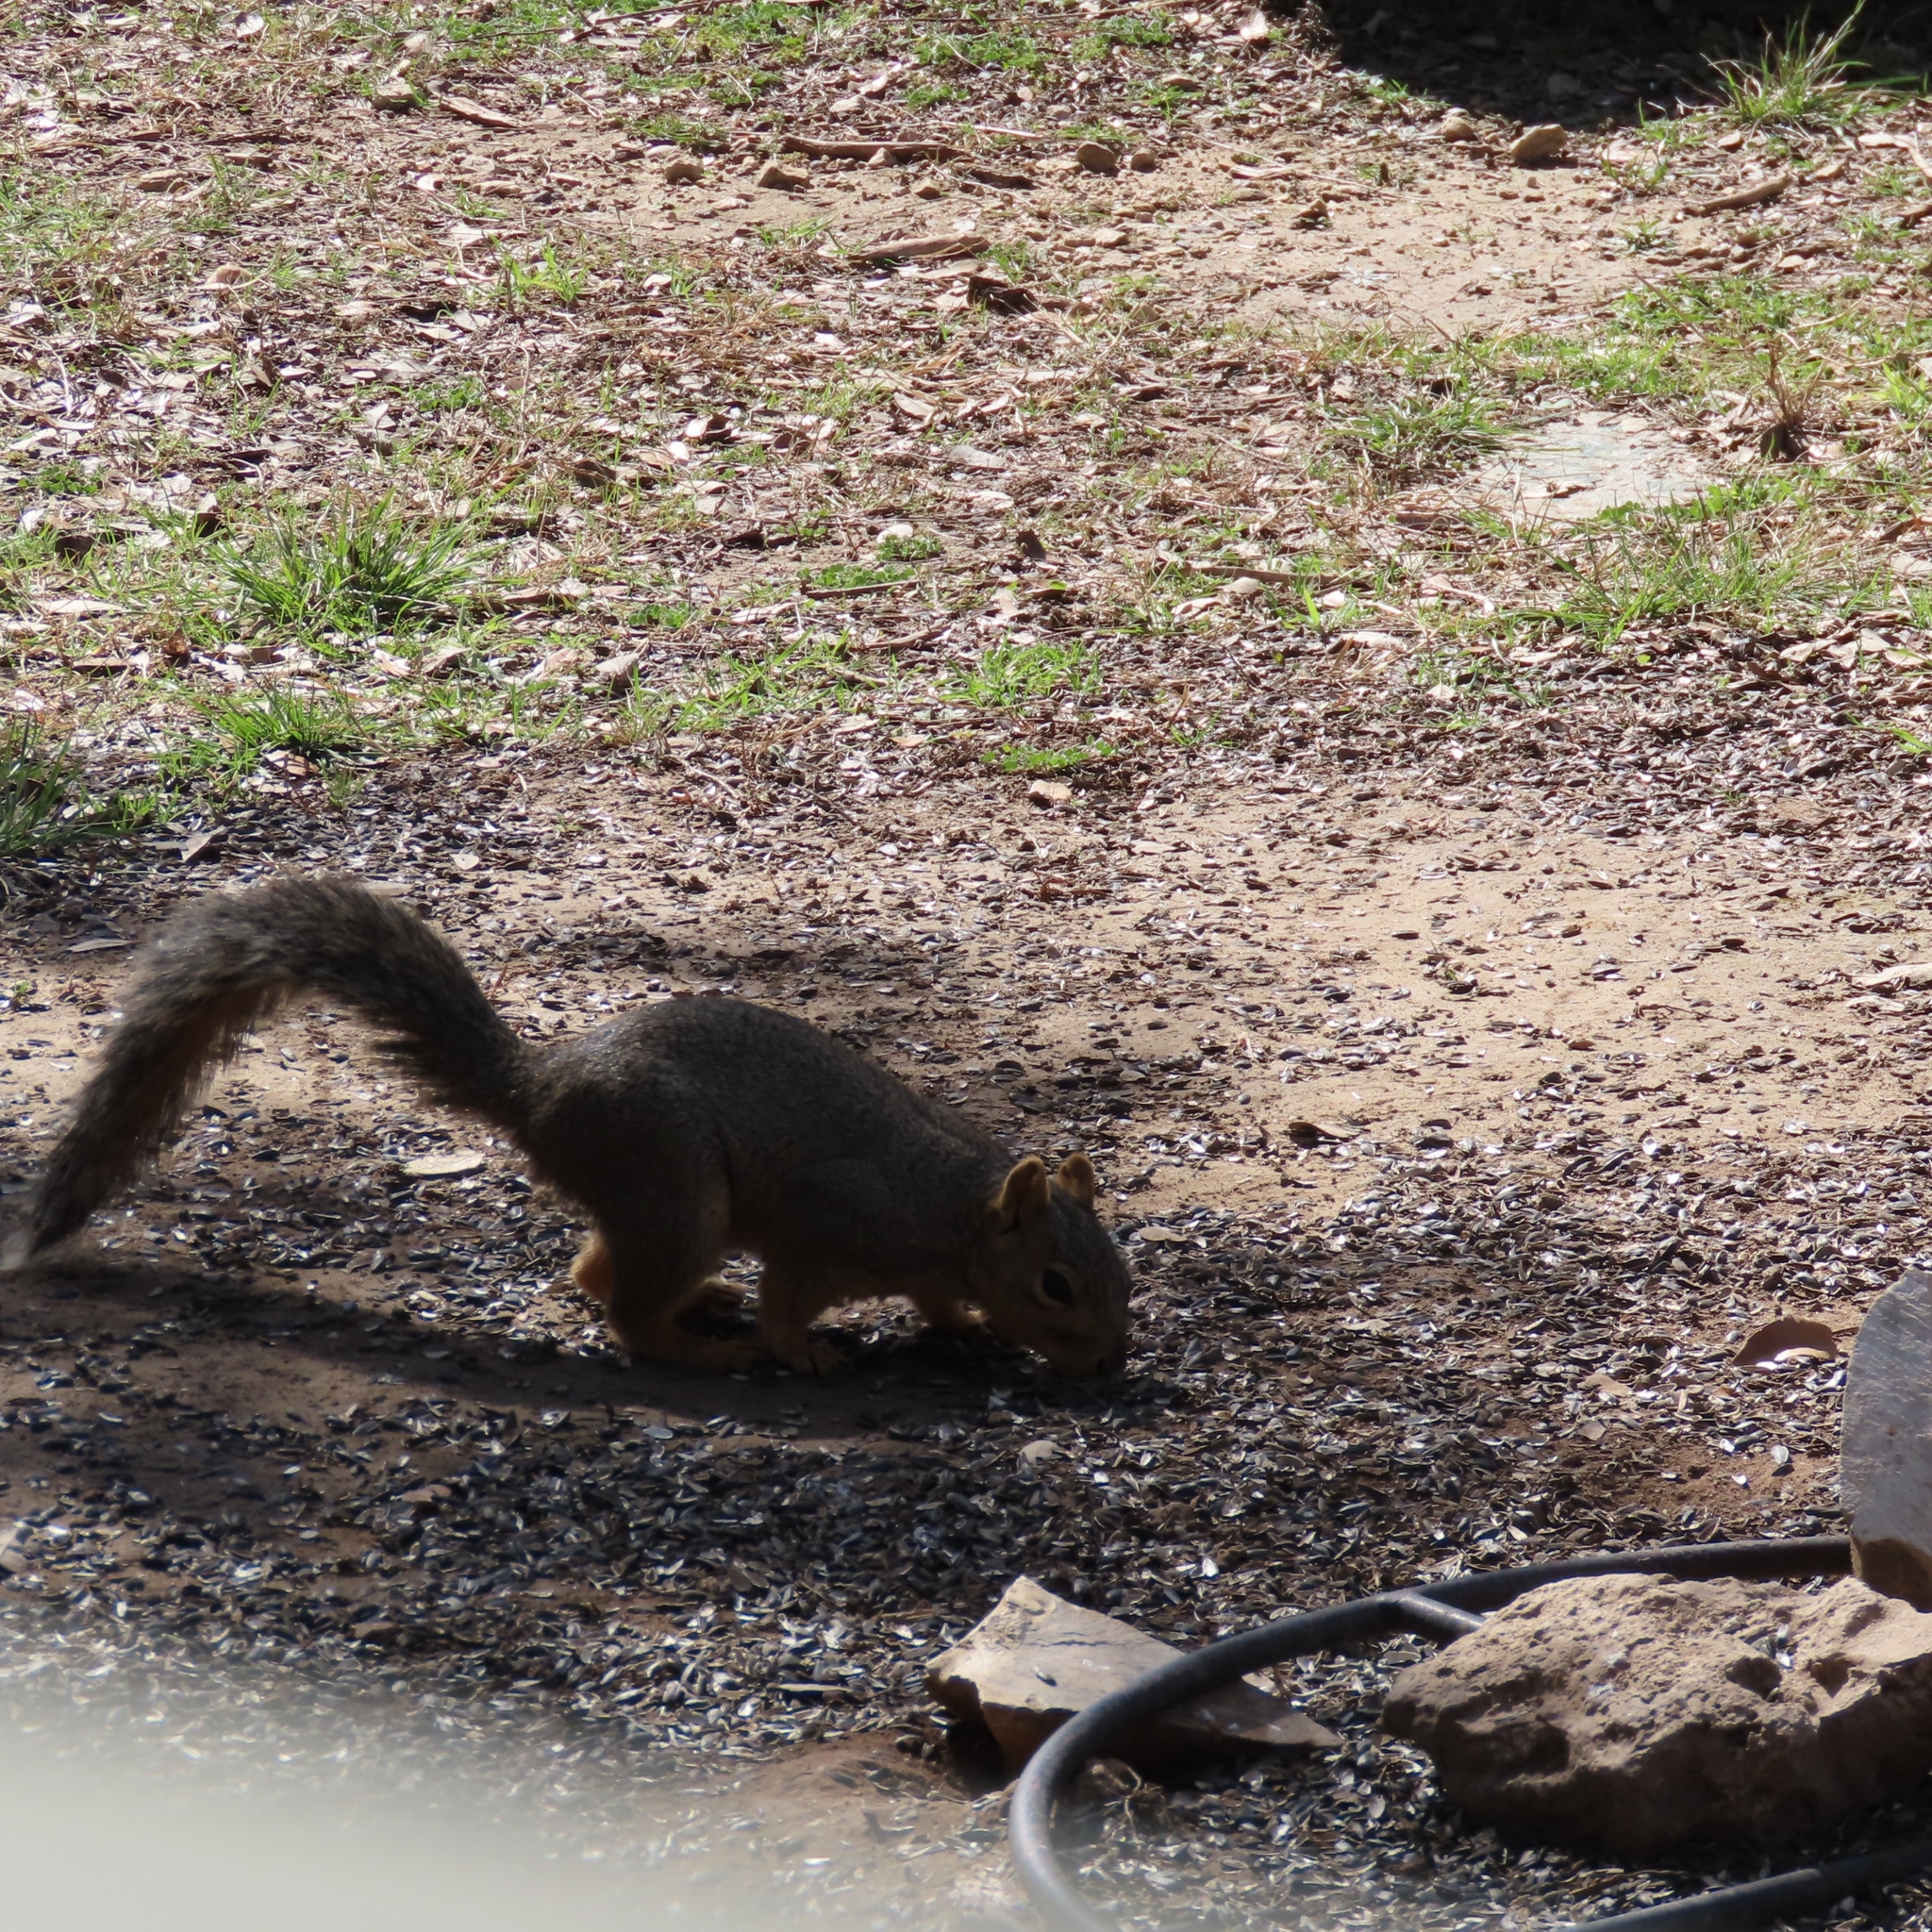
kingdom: Animalia
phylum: Chordata
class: Mammalia
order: Rodentia
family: Sciuridae
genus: Sciurus
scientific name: Sciurus niger
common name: Fox squirrel
